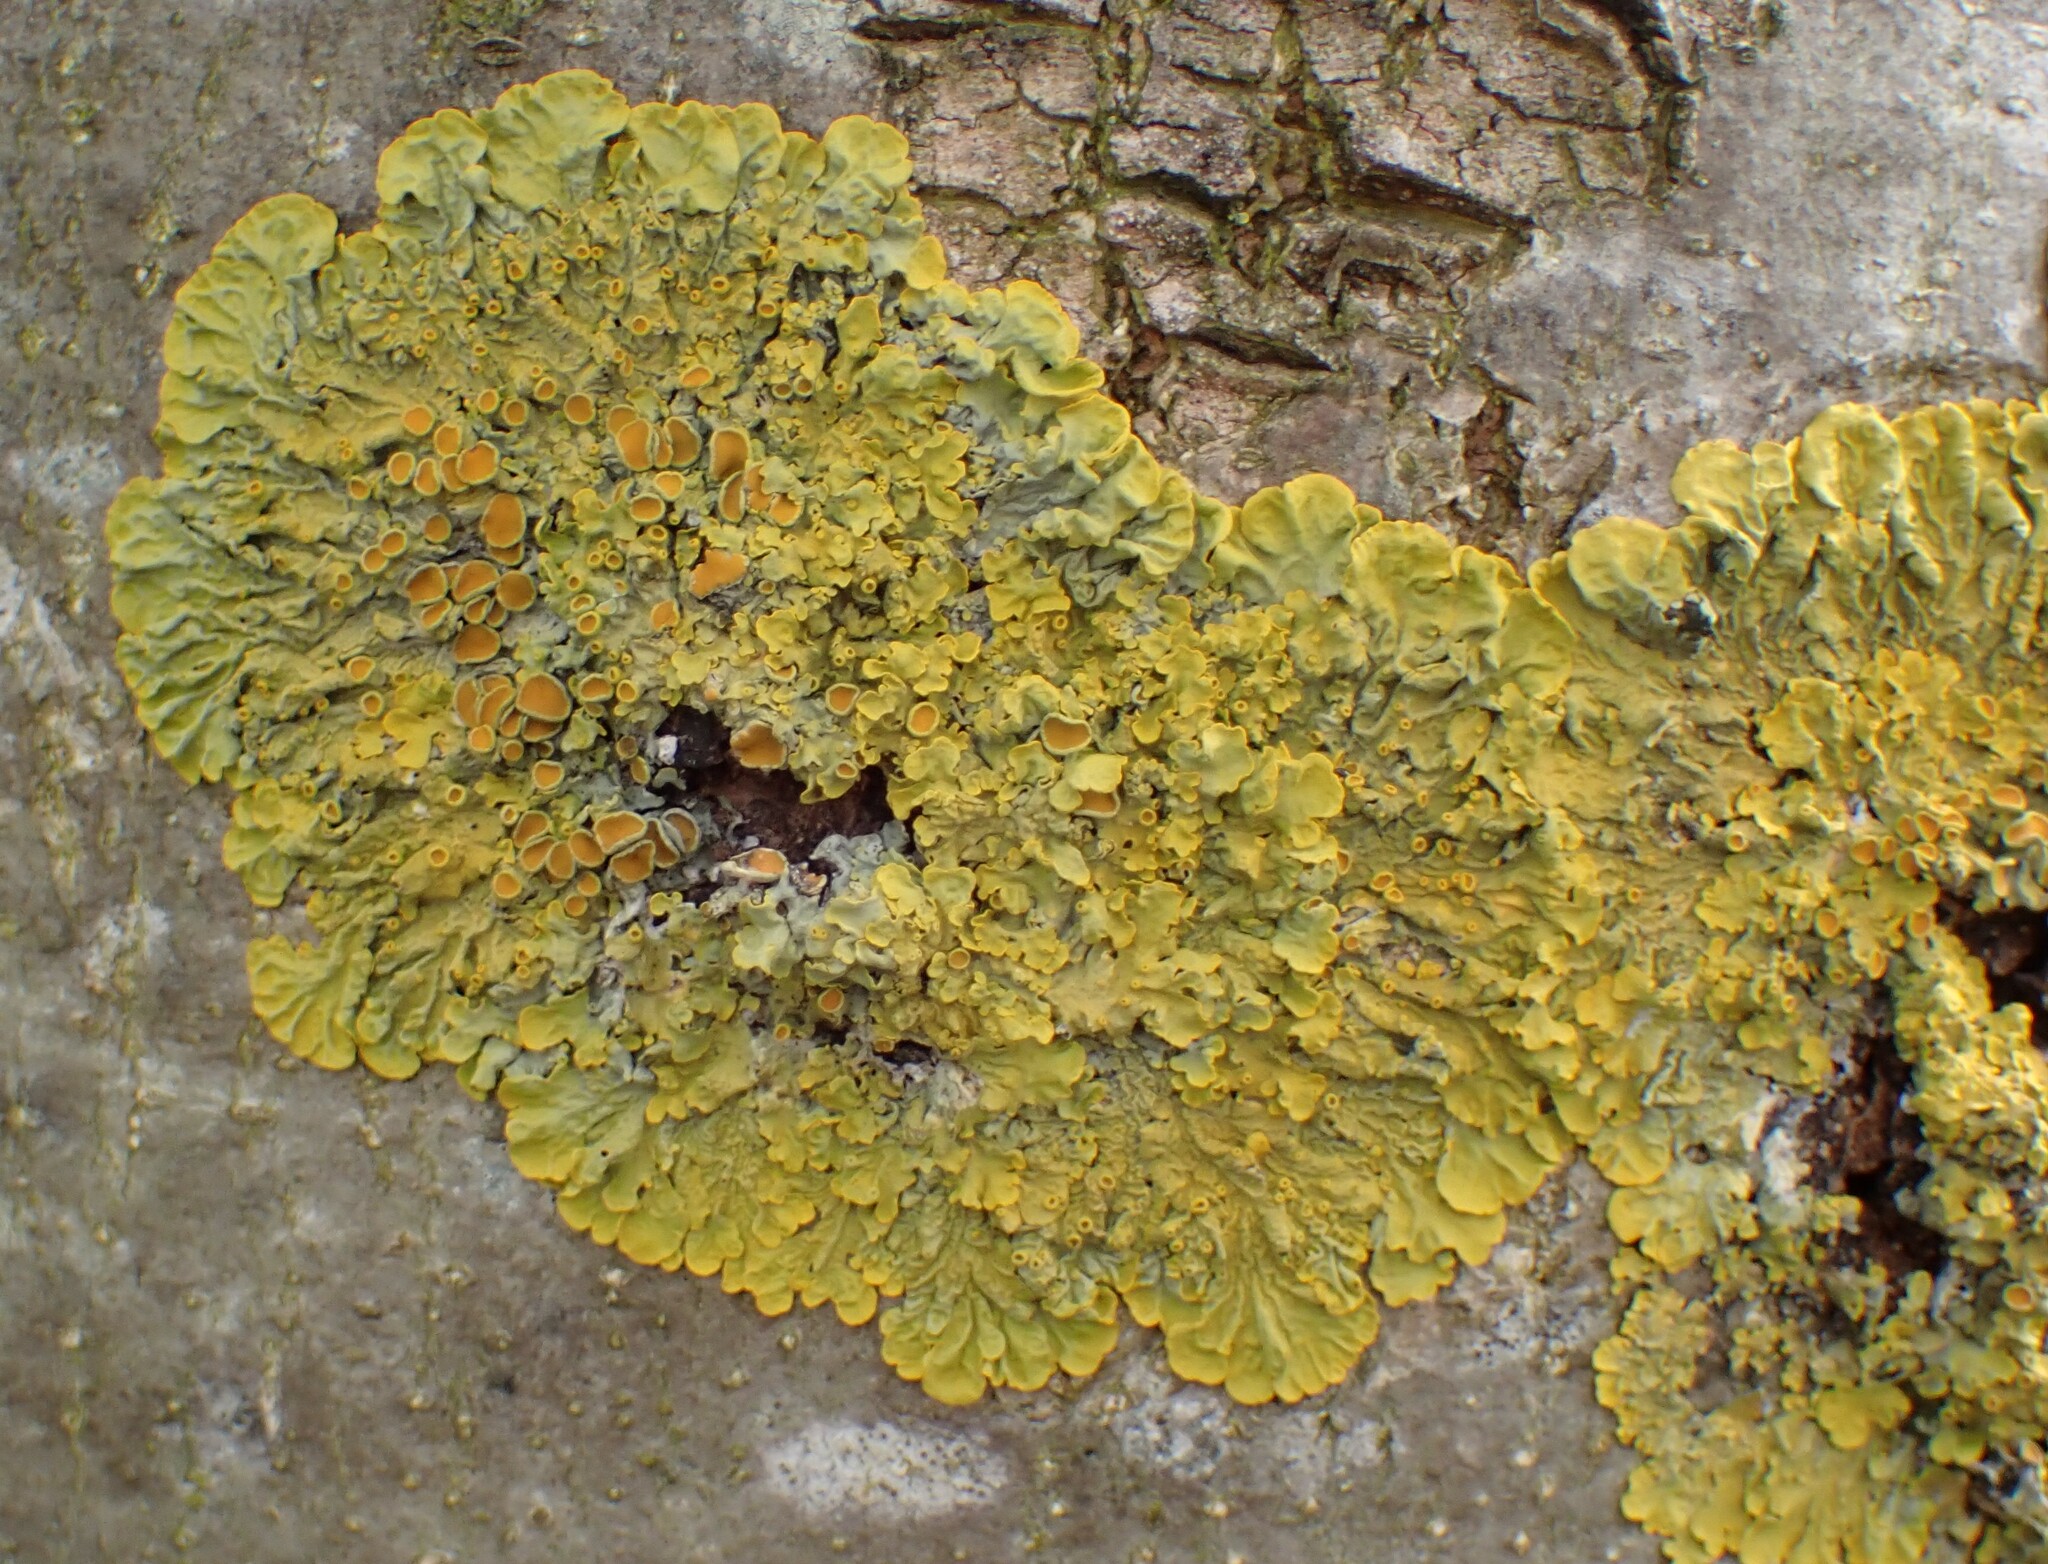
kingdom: Fungi
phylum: Ascomycota
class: Lecanoromycetes
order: Teloschistales
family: Teloschistaceae
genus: Xanthoria
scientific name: Xanthoria parietina
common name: Common orange lichen
